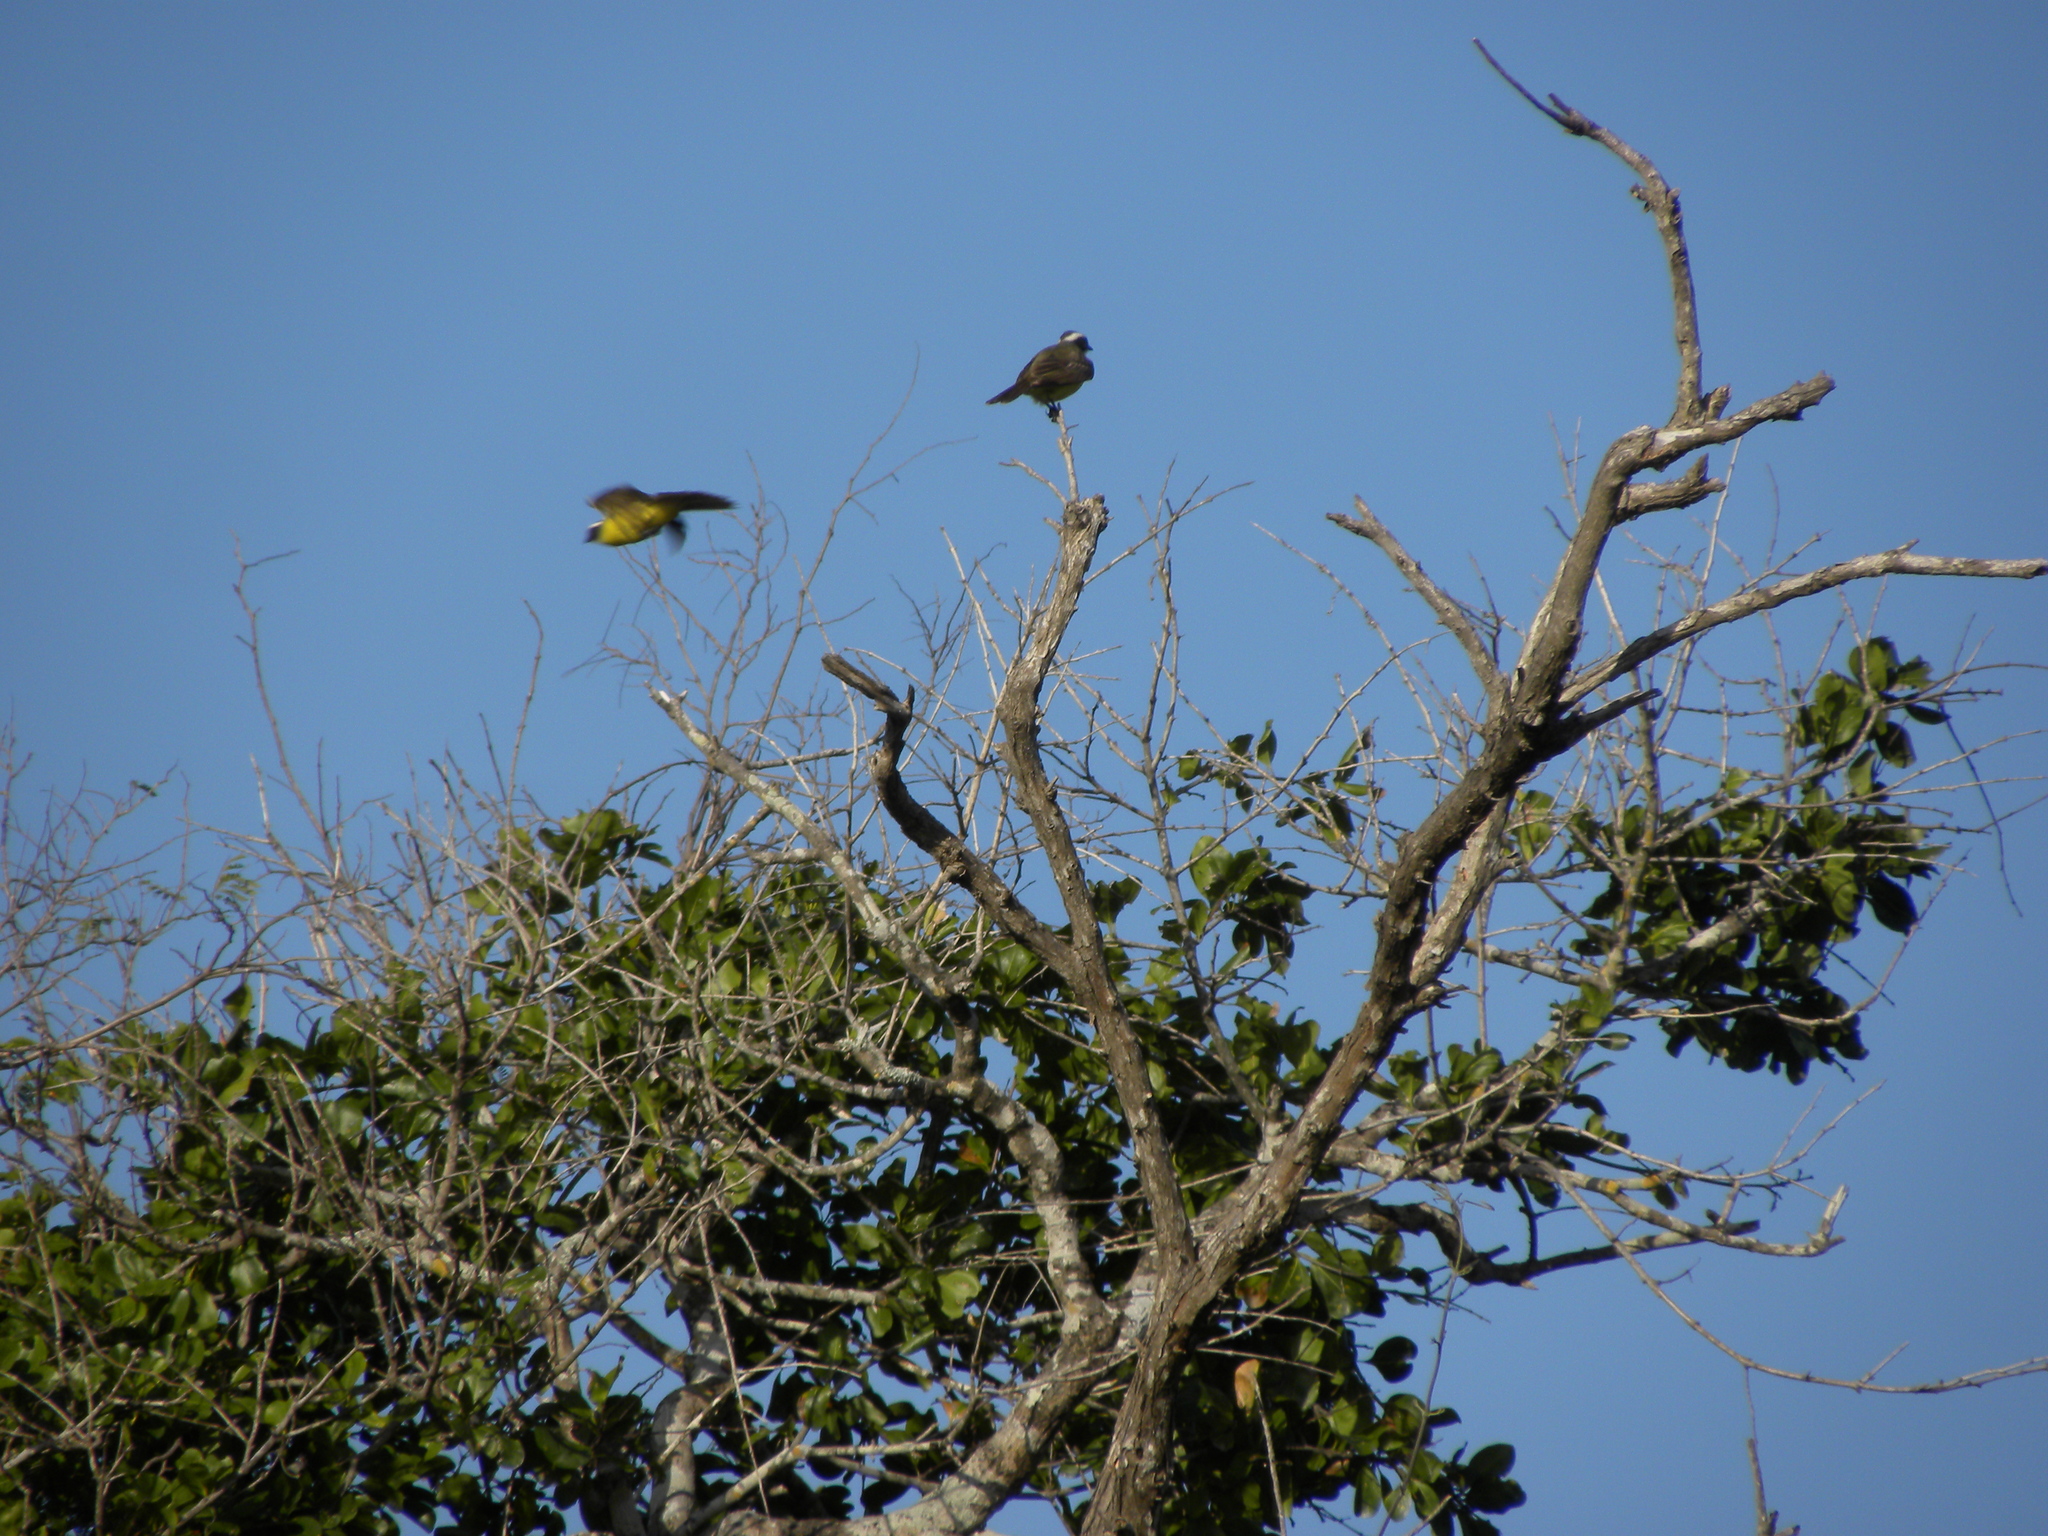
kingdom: Animalia
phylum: Chordata
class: Aves
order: Passeriformes
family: Tyrannidae
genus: Myiozetetes
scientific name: Myiozetetes similis
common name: Social flycatcher
